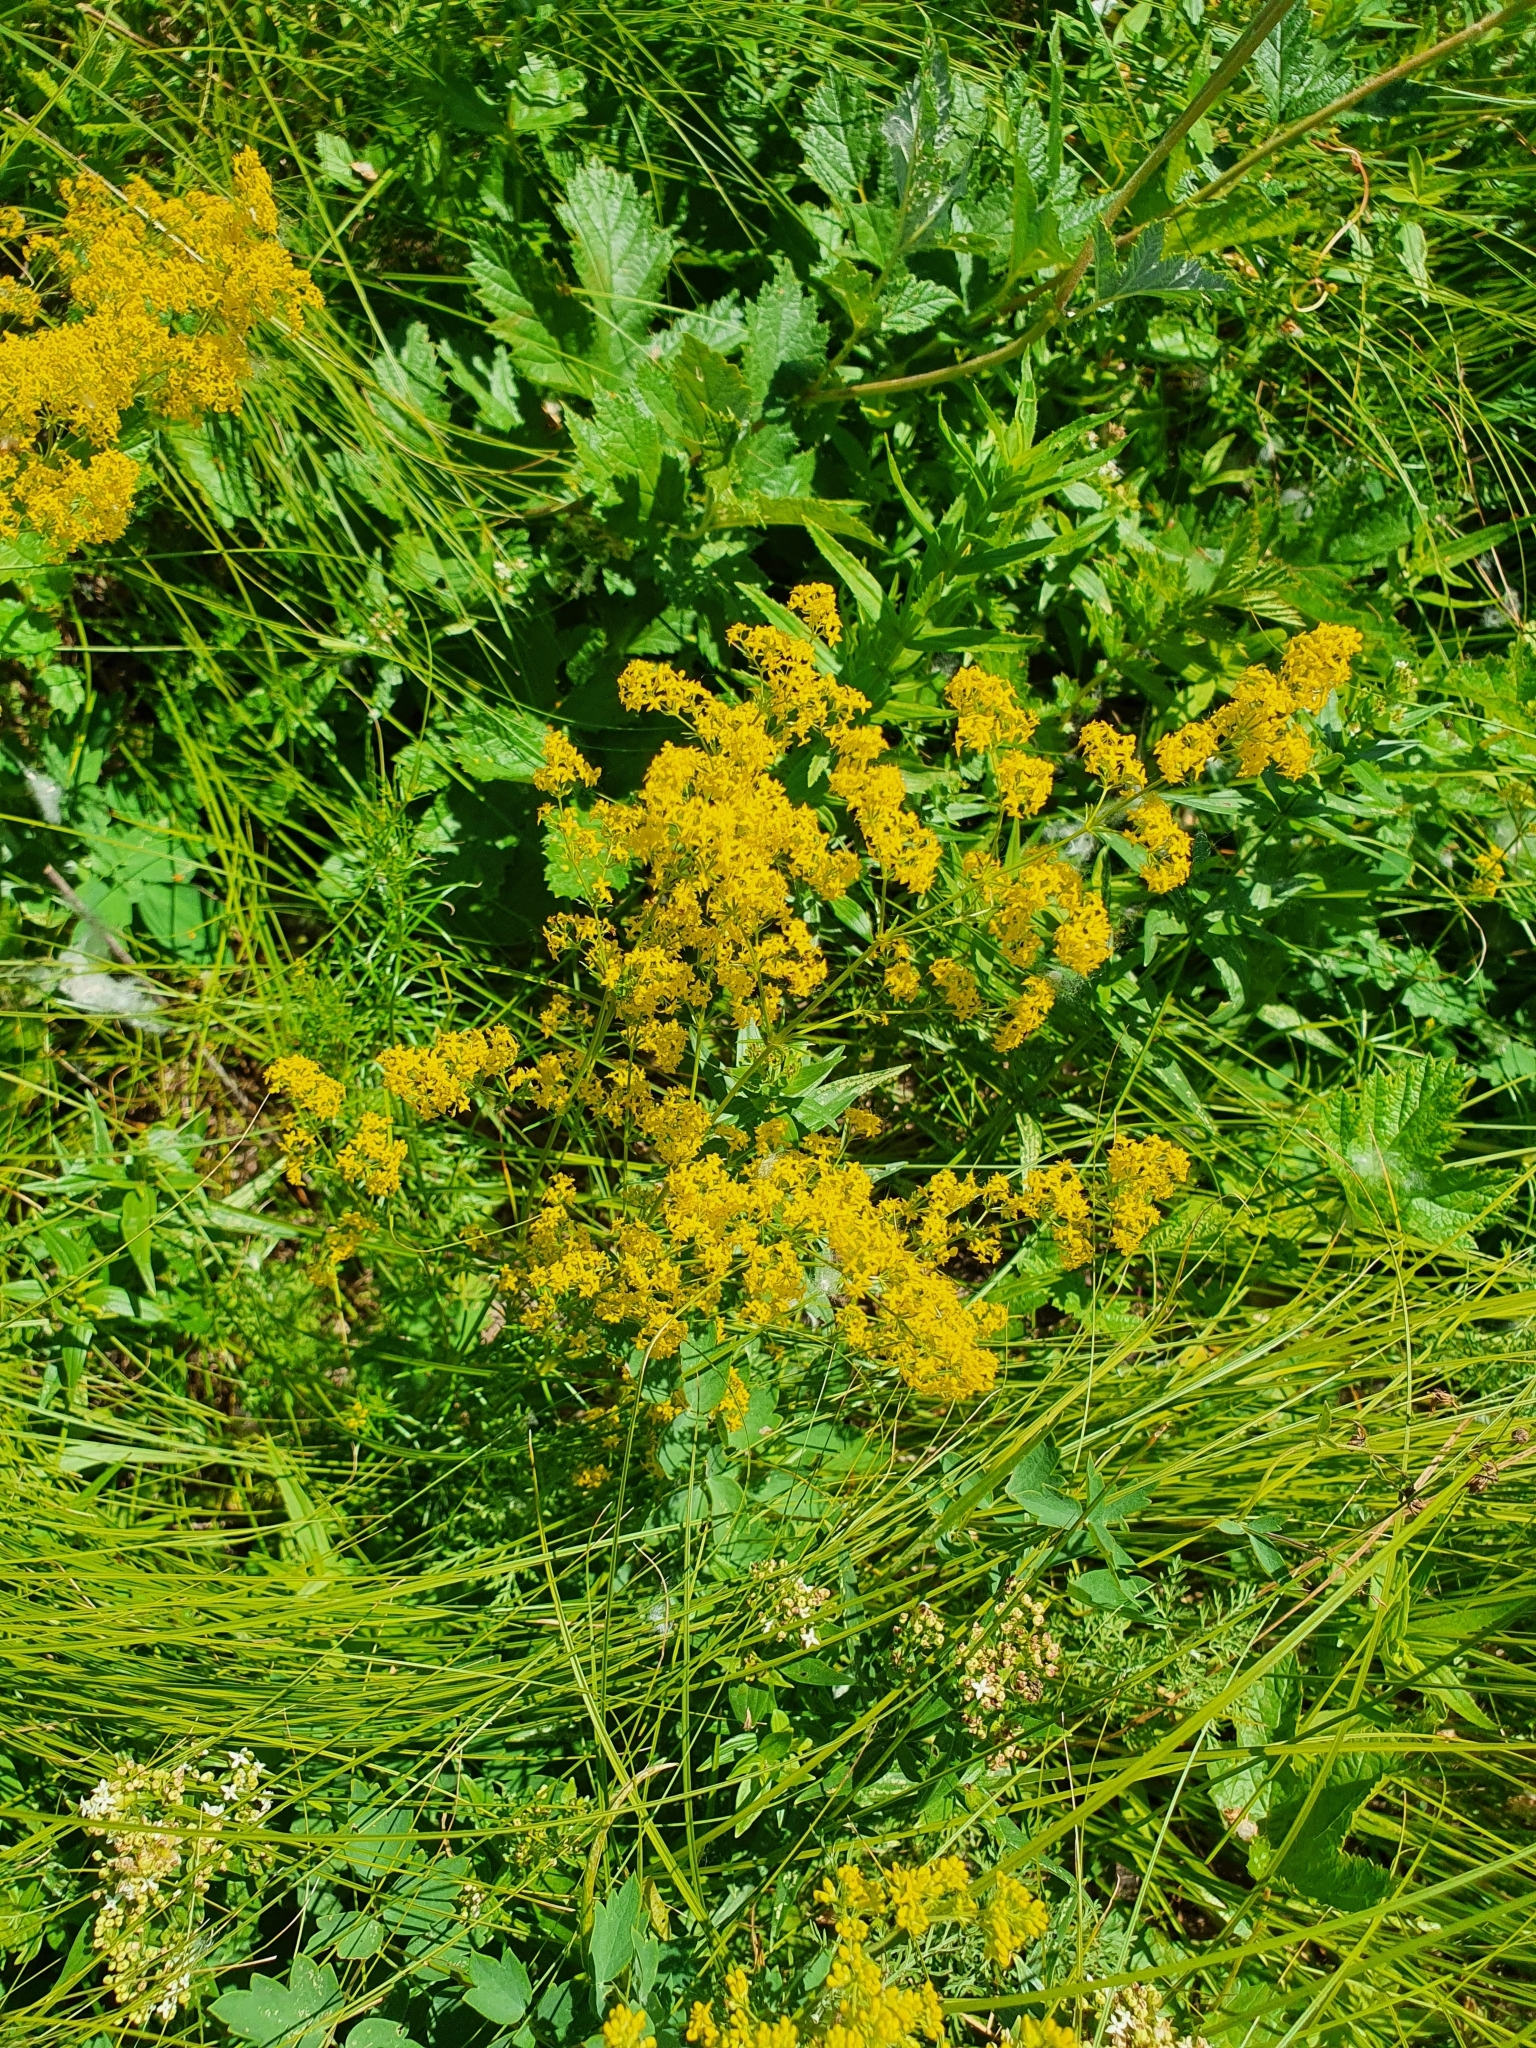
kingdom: Plantae
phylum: Tracheophyta
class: Magnoliopsida
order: Gentianales
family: Rubiaceae
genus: Galium
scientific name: Galium verum
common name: Lady's bedstraw
